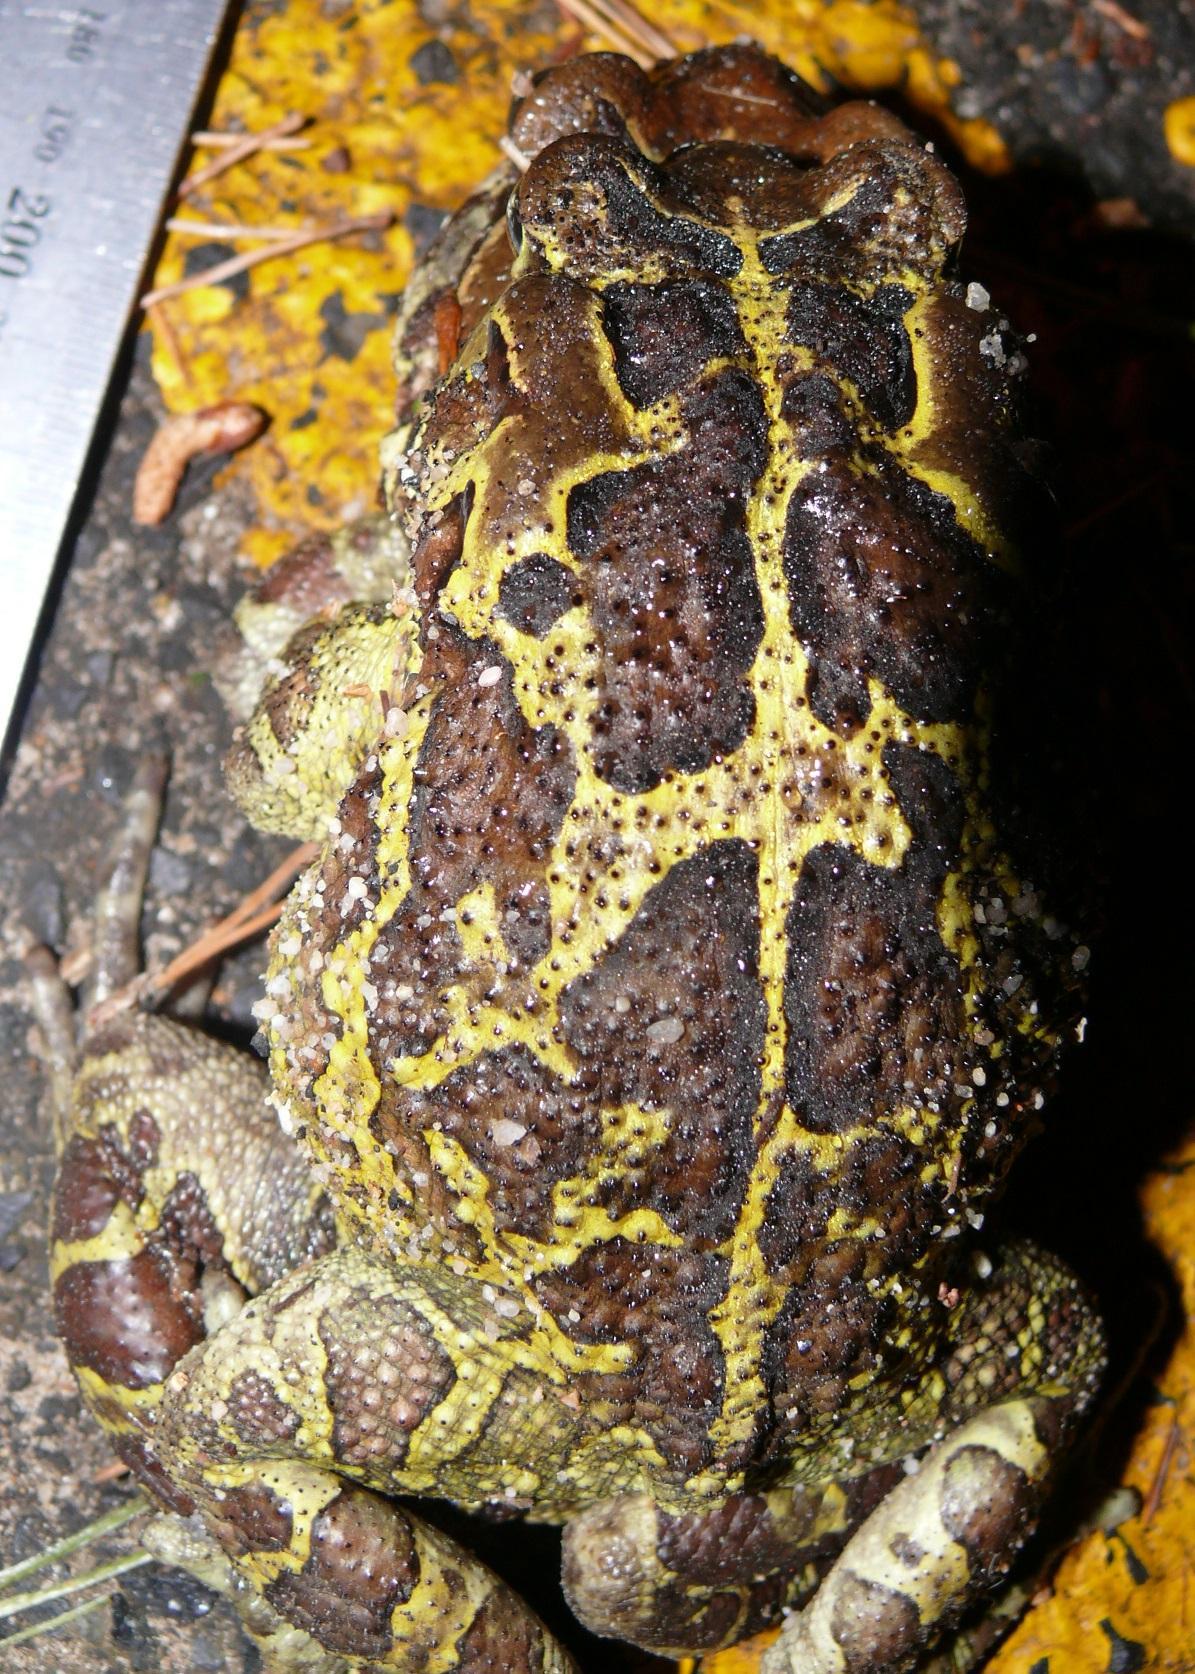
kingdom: Animalia
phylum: Chordata
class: Amphibia
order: Anura
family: Bufonidae
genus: Sclerophrys
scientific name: Sclerophrys pantherina
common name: Panther toad
